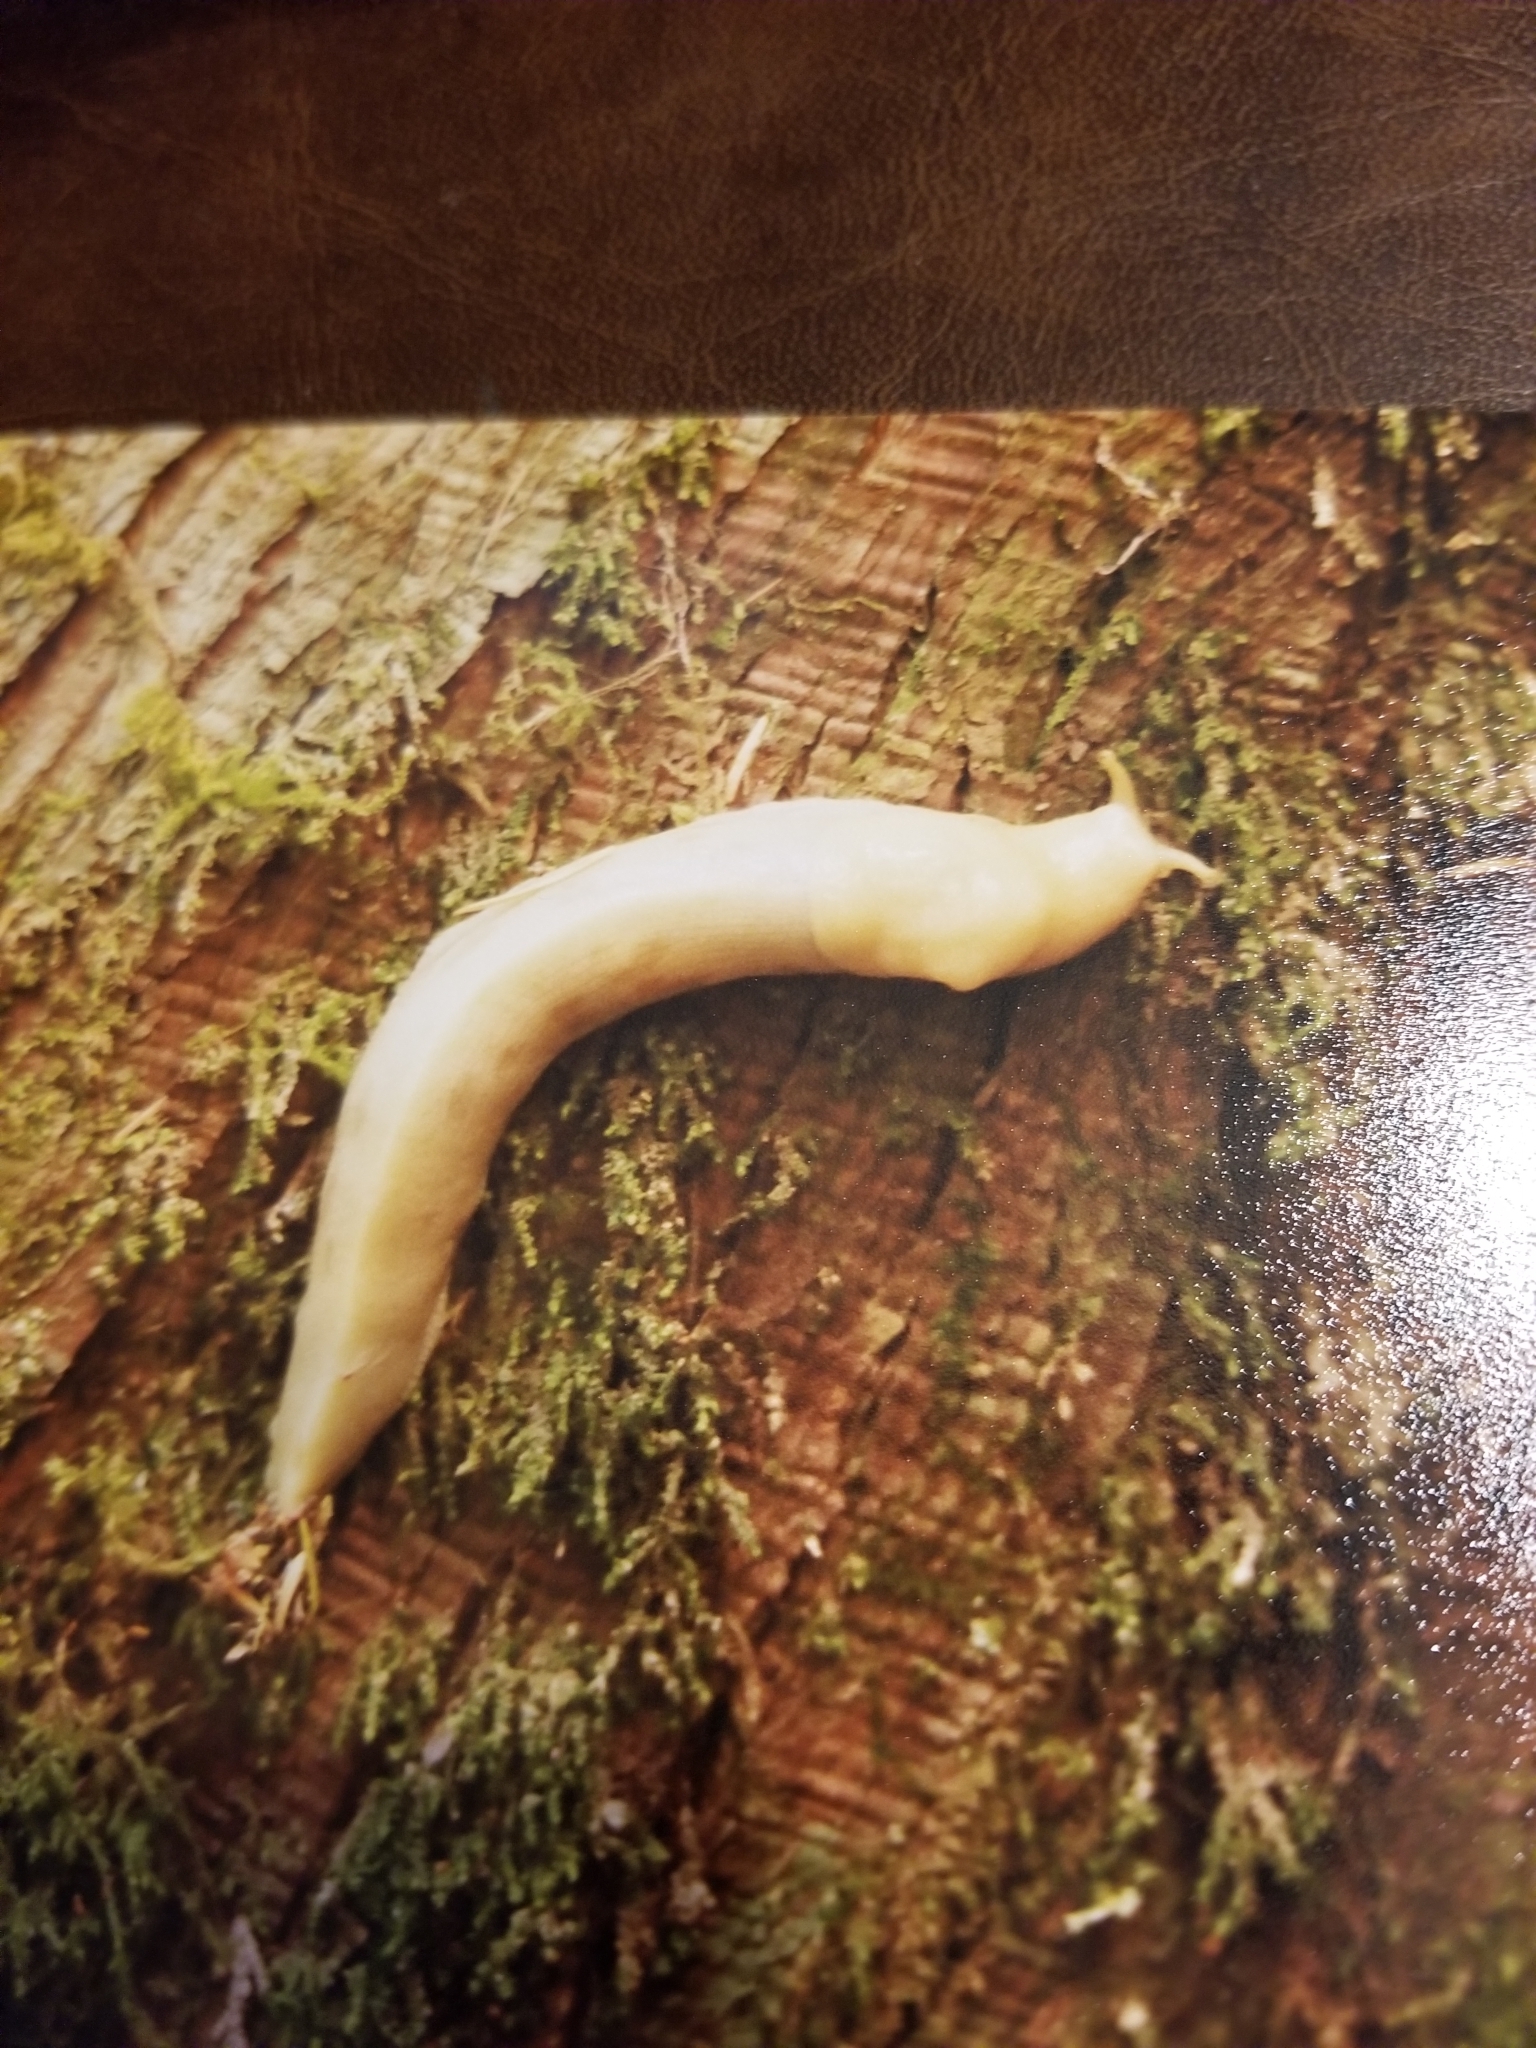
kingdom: Animalia
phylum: Mollusca
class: Gastropoda
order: Stylommatophora
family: Ariolimacidae
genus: Ariolimax
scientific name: Ariolimax columbianus
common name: Pacific banana slug
